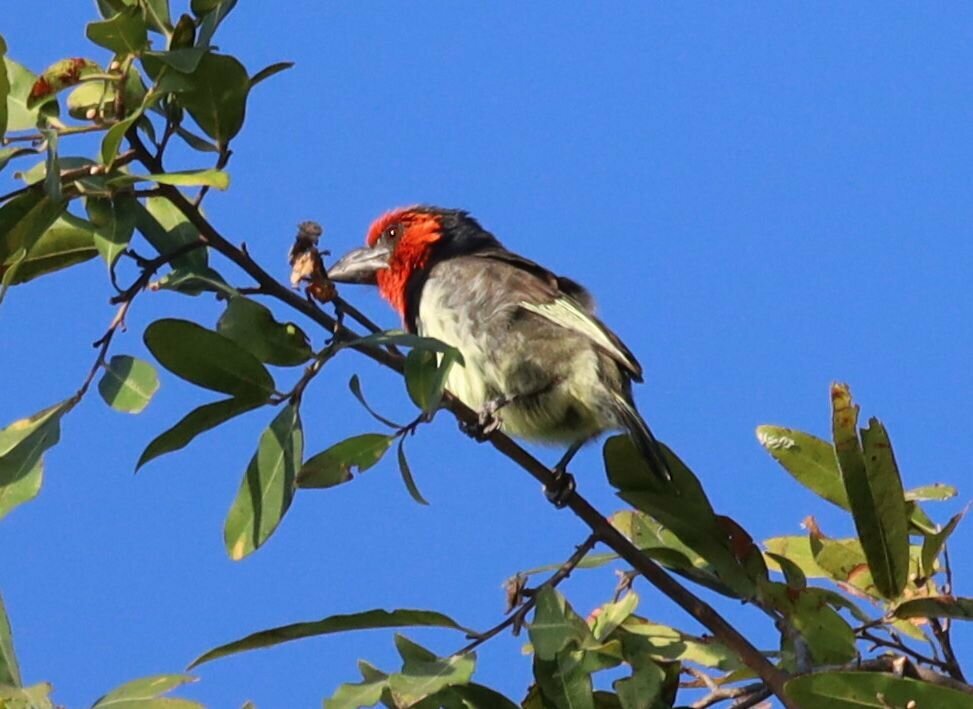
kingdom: Animalia
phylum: Chordata
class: Aves
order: Piciformes
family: Lybiidae
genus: Lybius
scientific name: Lybius torquatus
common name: Black-collared barbet
